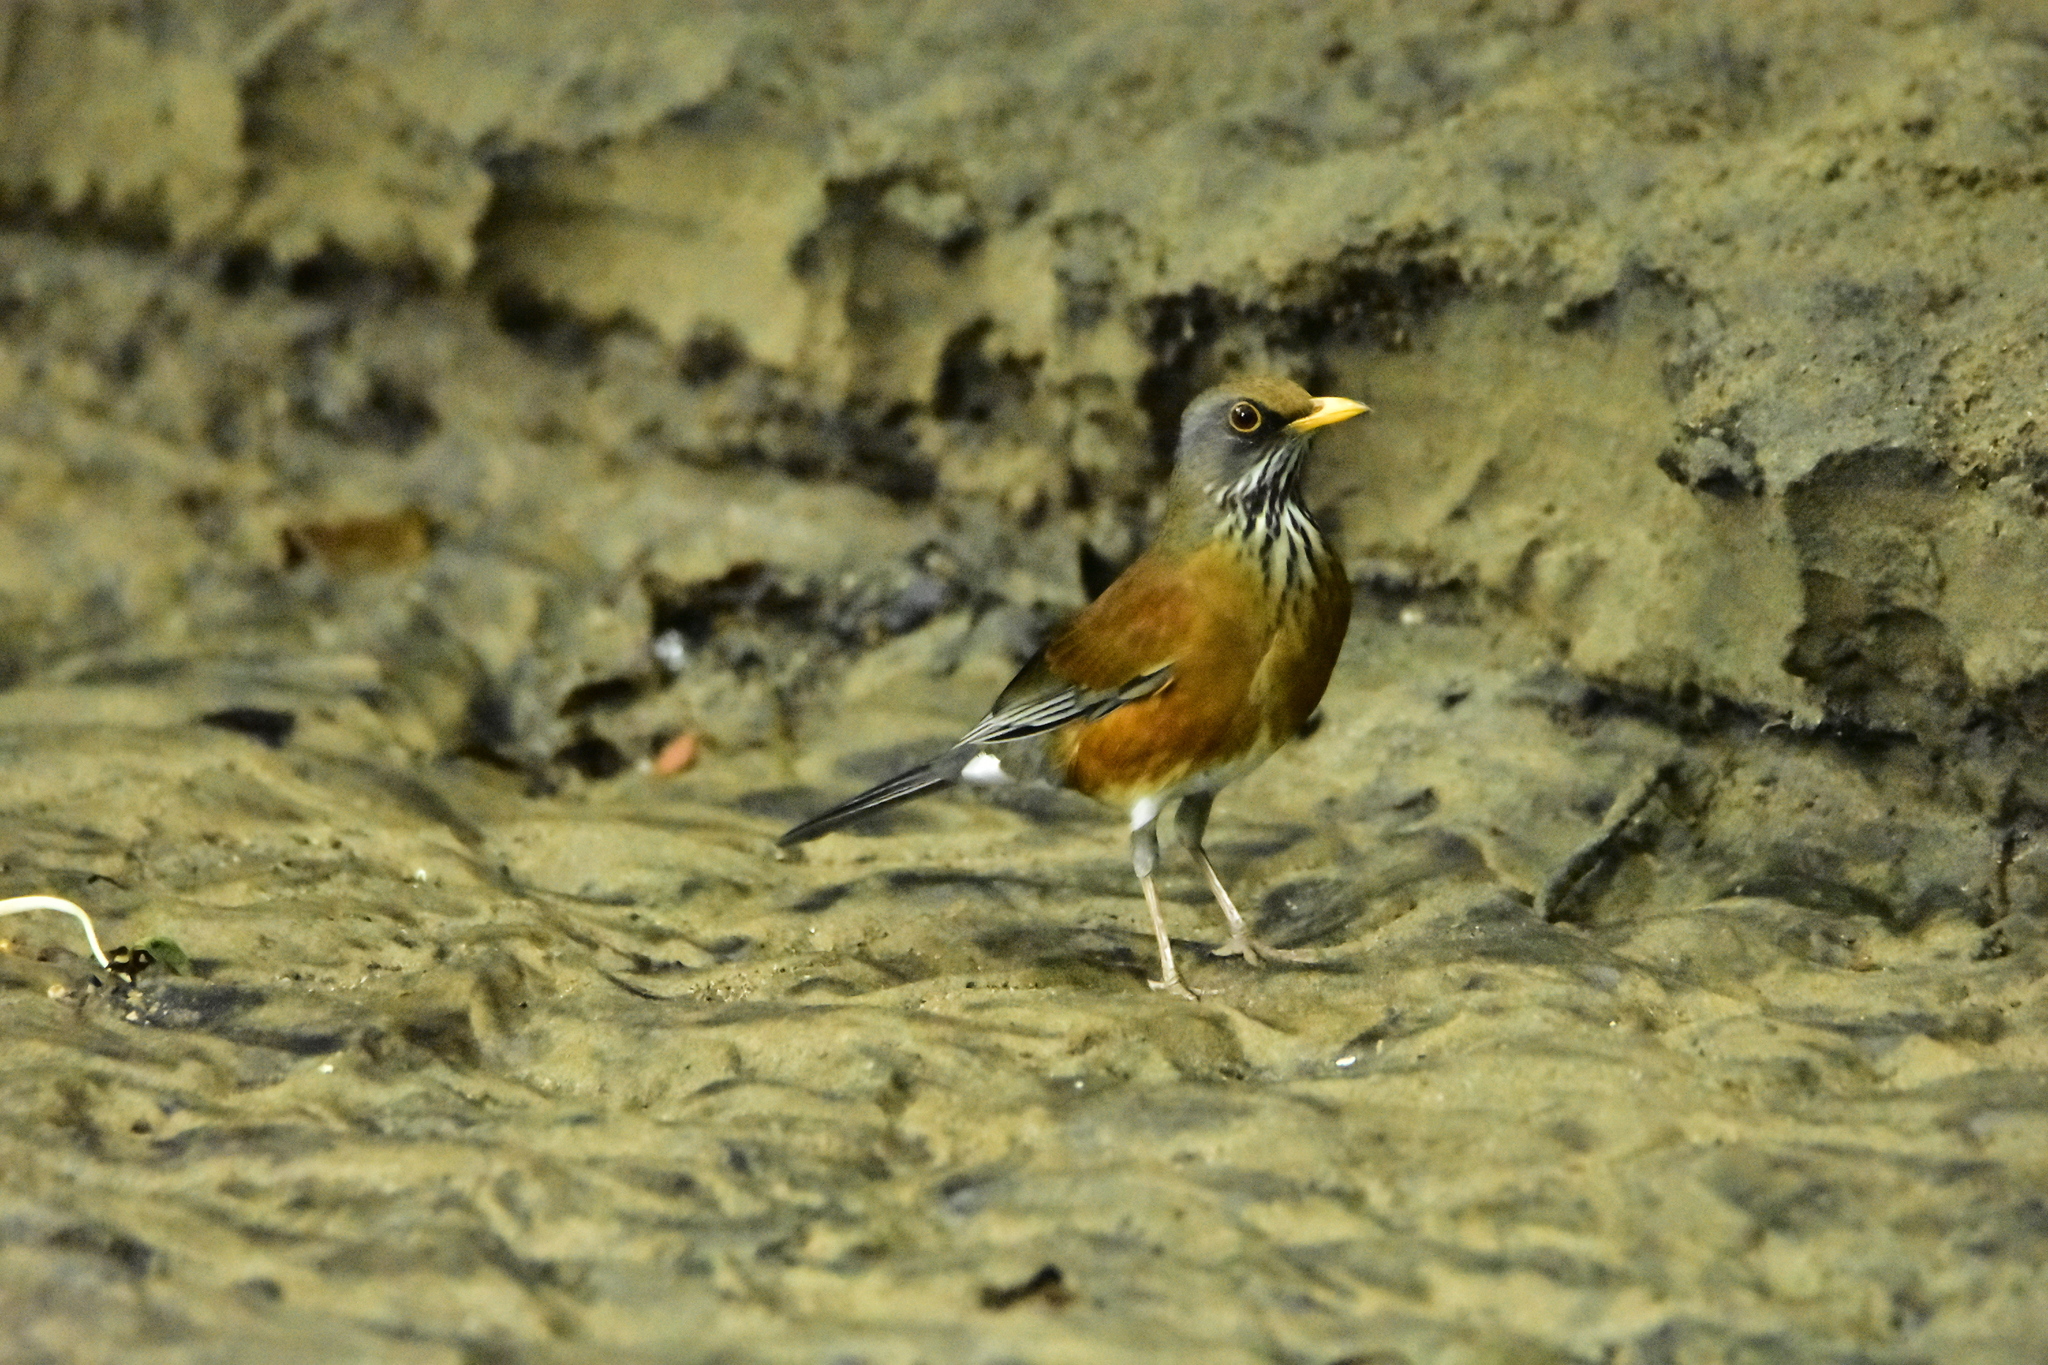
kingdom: Animalia
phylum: Chordata
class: Aves
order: Passeriformes
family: Turdidae
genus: Turdus
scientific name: Turdus rufopalliatus
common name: Rufous-backed robin
